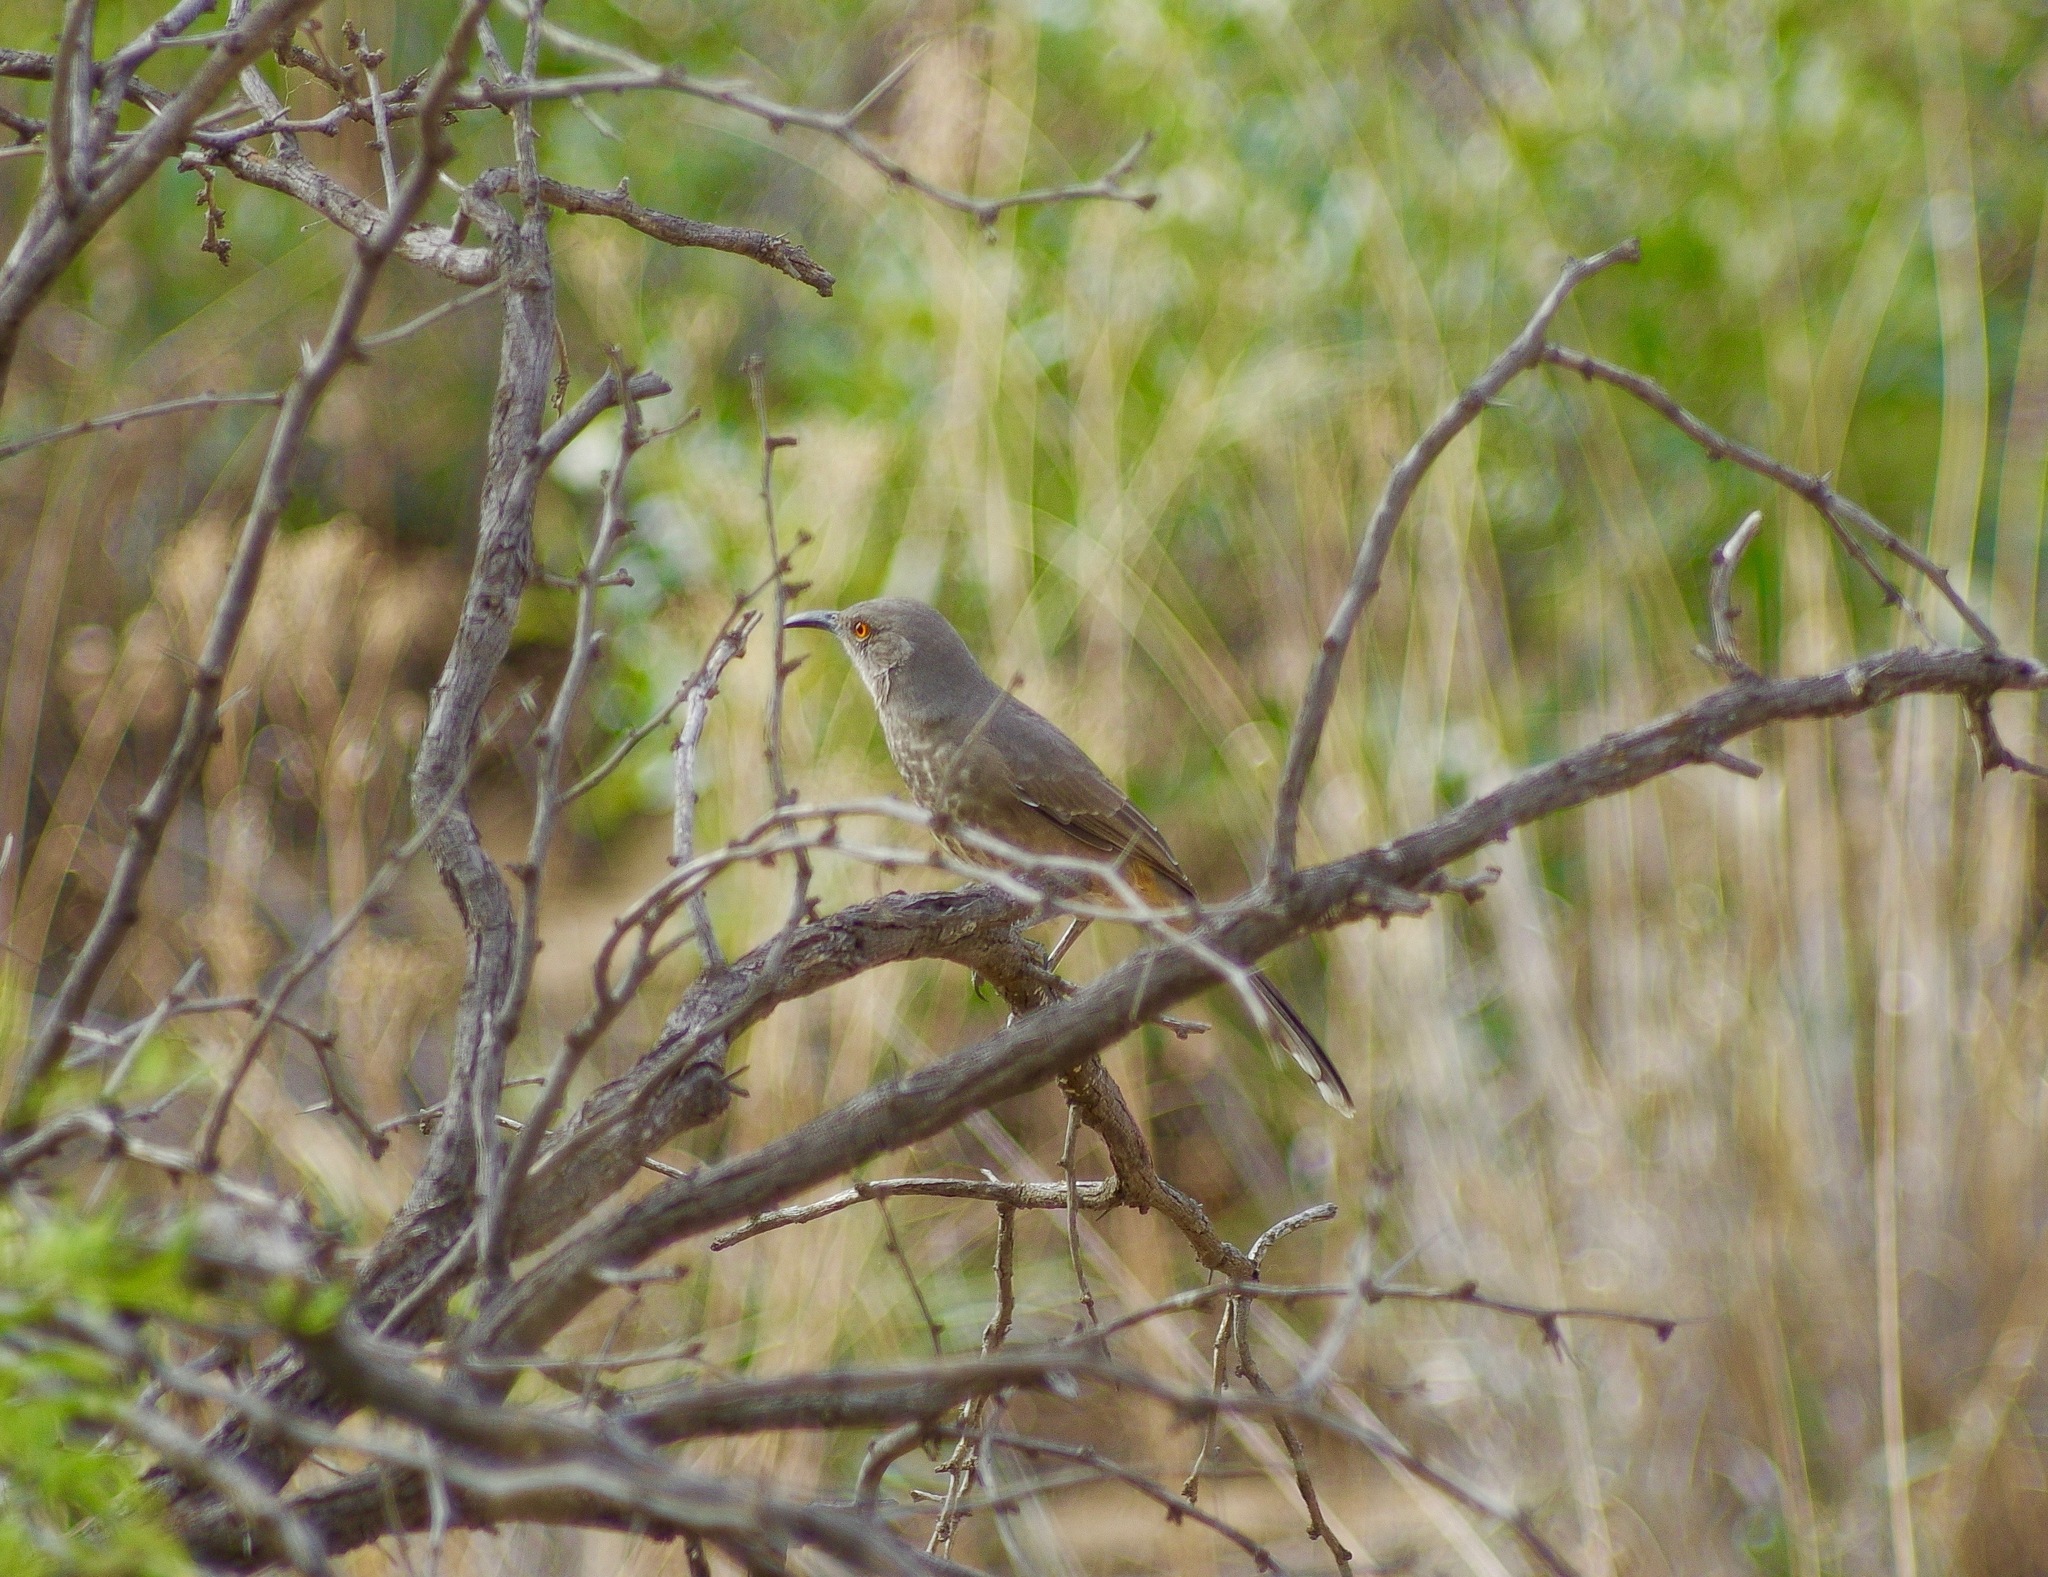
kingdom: Animalia
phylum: Chordata
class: Aves
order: Passeriformes
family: Mimidae
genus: Toxostoma
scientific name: Toxostoma curvirostre
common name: Curve-billed thrasher
